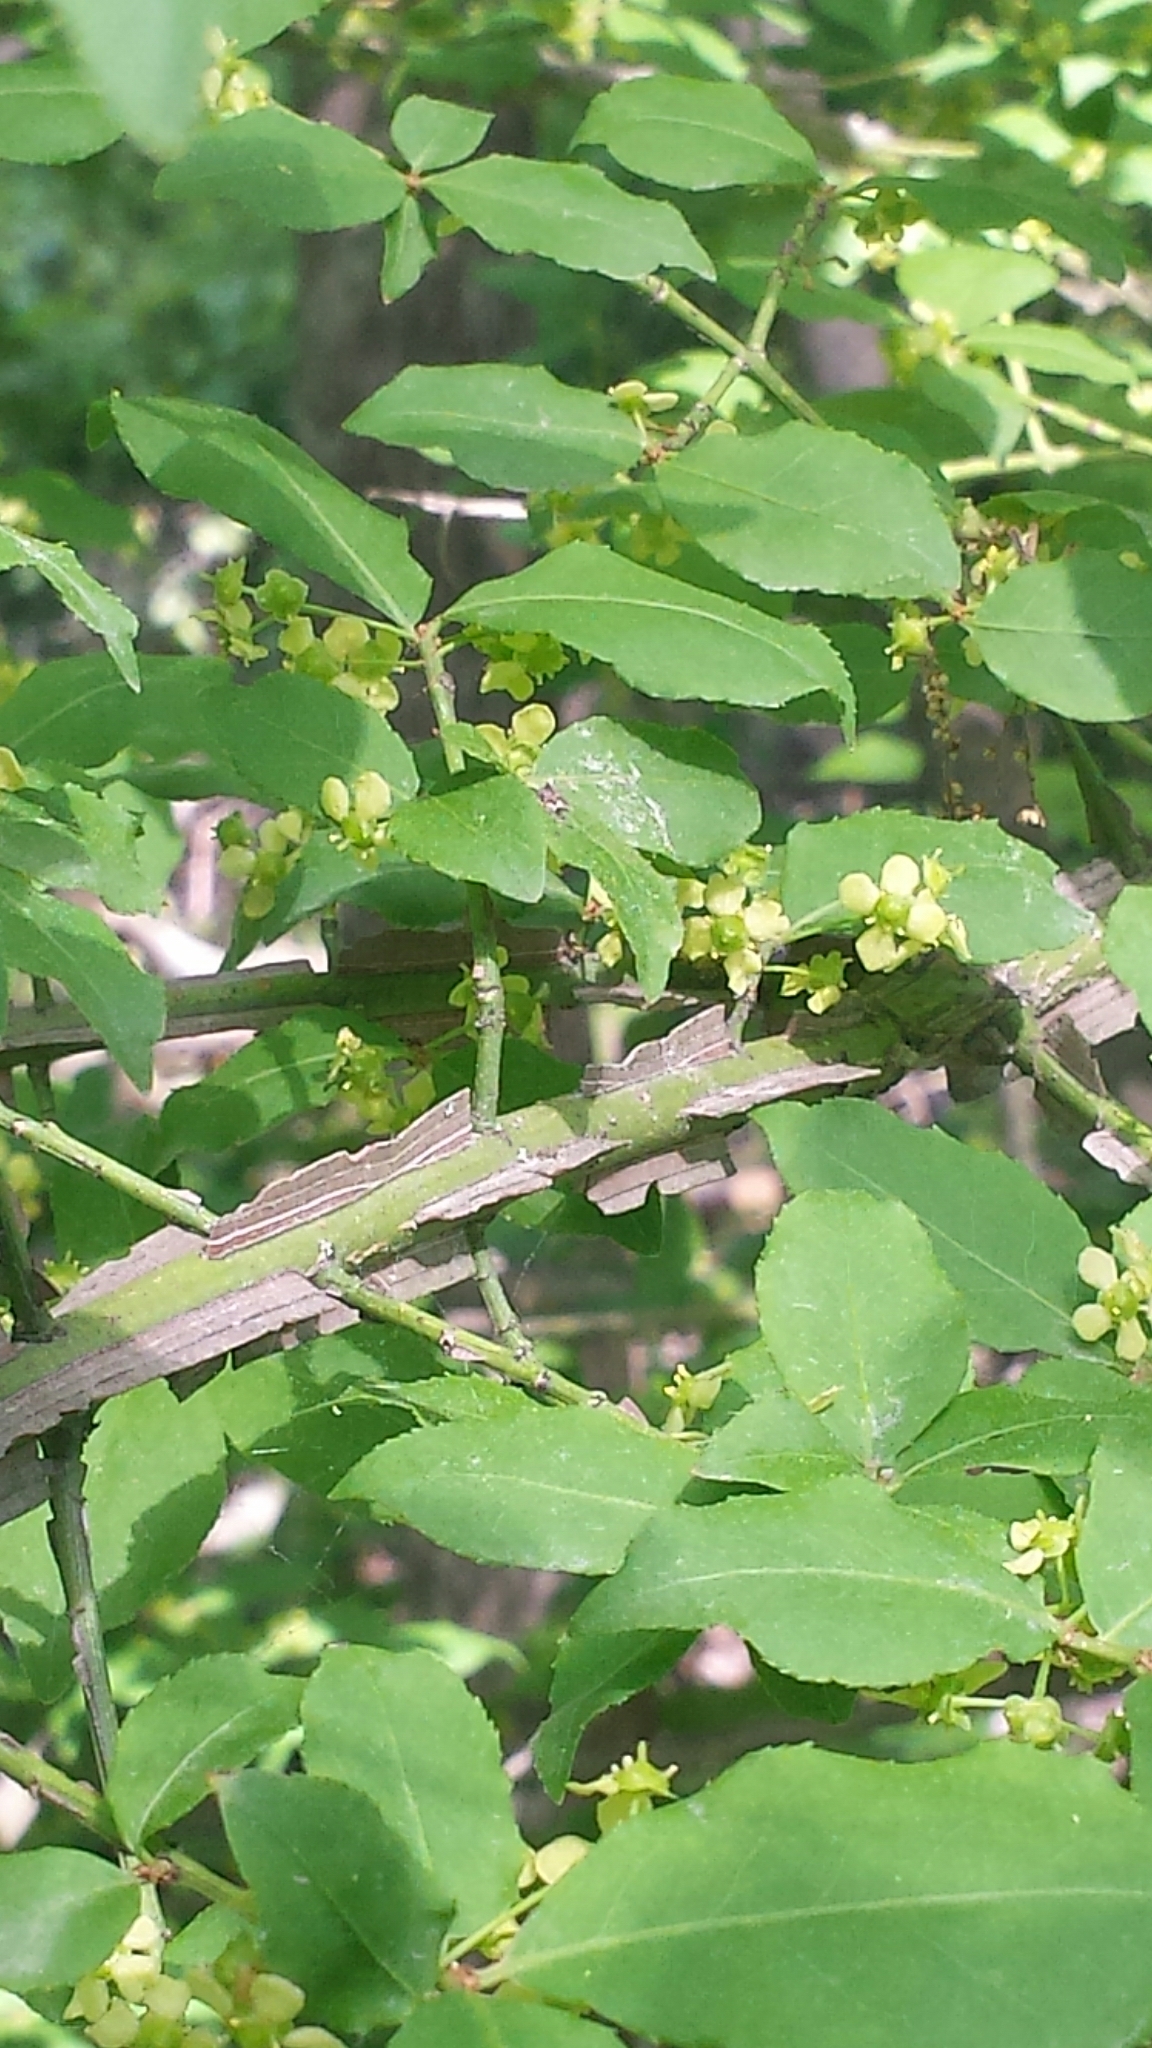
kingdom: Plantae
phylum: Tracheophyta
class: Magnoliopsida
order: Celastrales
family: Celastraceae
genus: Euonymus
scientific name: Euonymus alatus
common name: Winged euonymus
